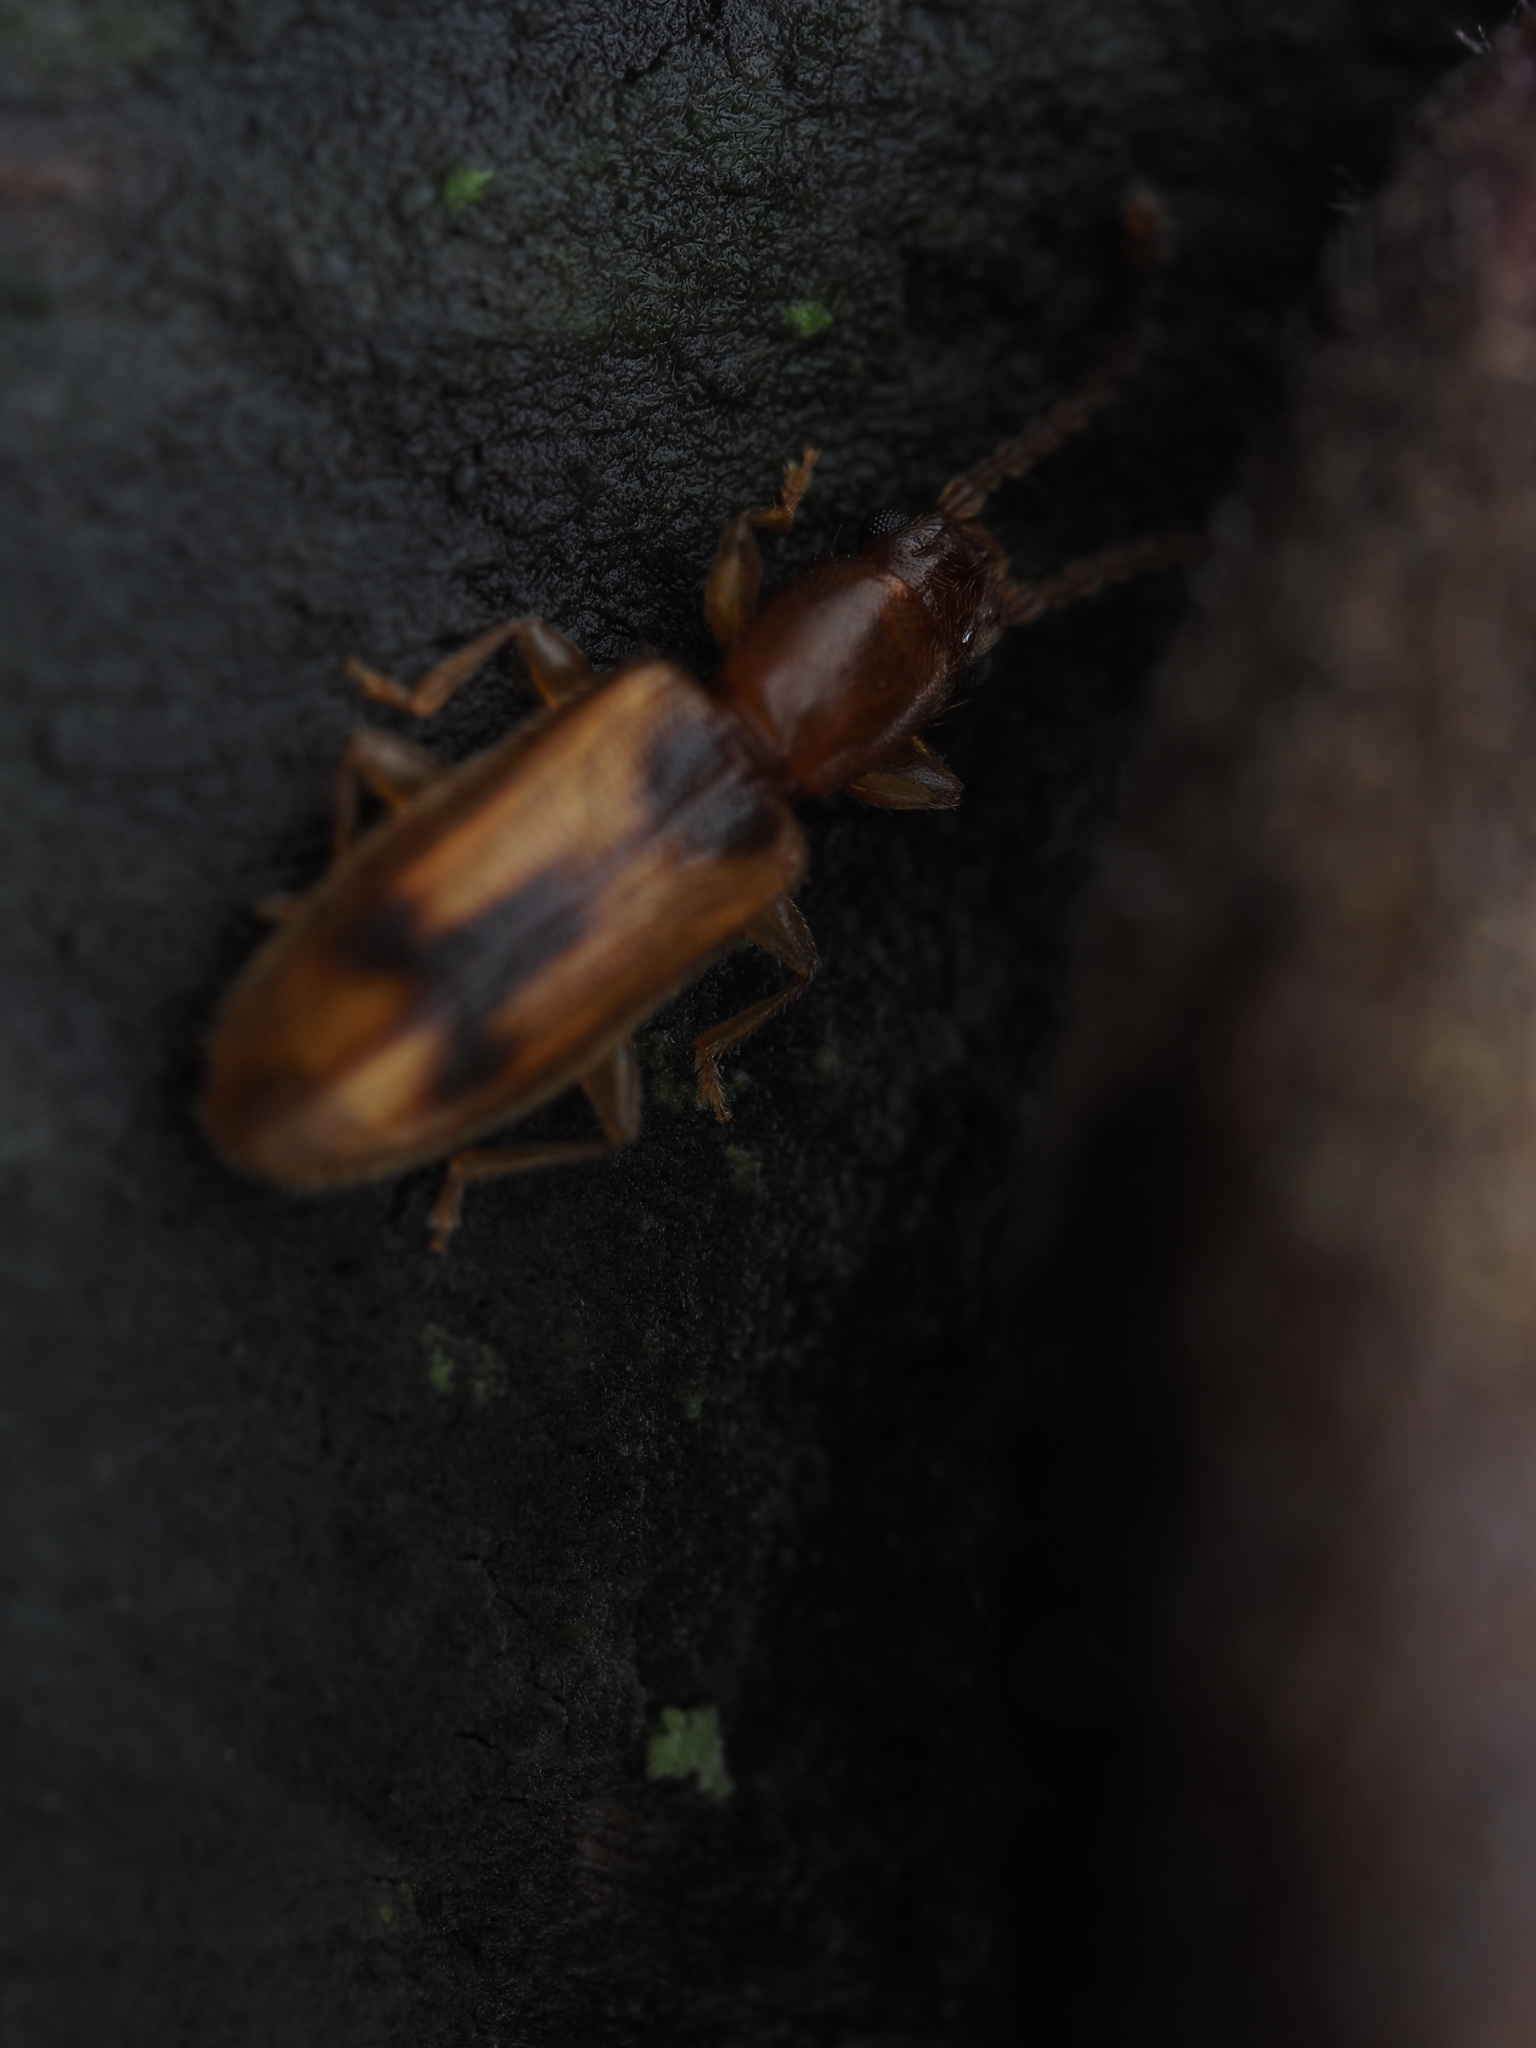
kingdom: Animalia
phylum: Arthropoda
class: Insecta
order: Coleoptera
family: Silvanidae
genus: Cryptamorpha
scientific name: Cryptamorpha desjardinsi
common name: Cryptamorpha
